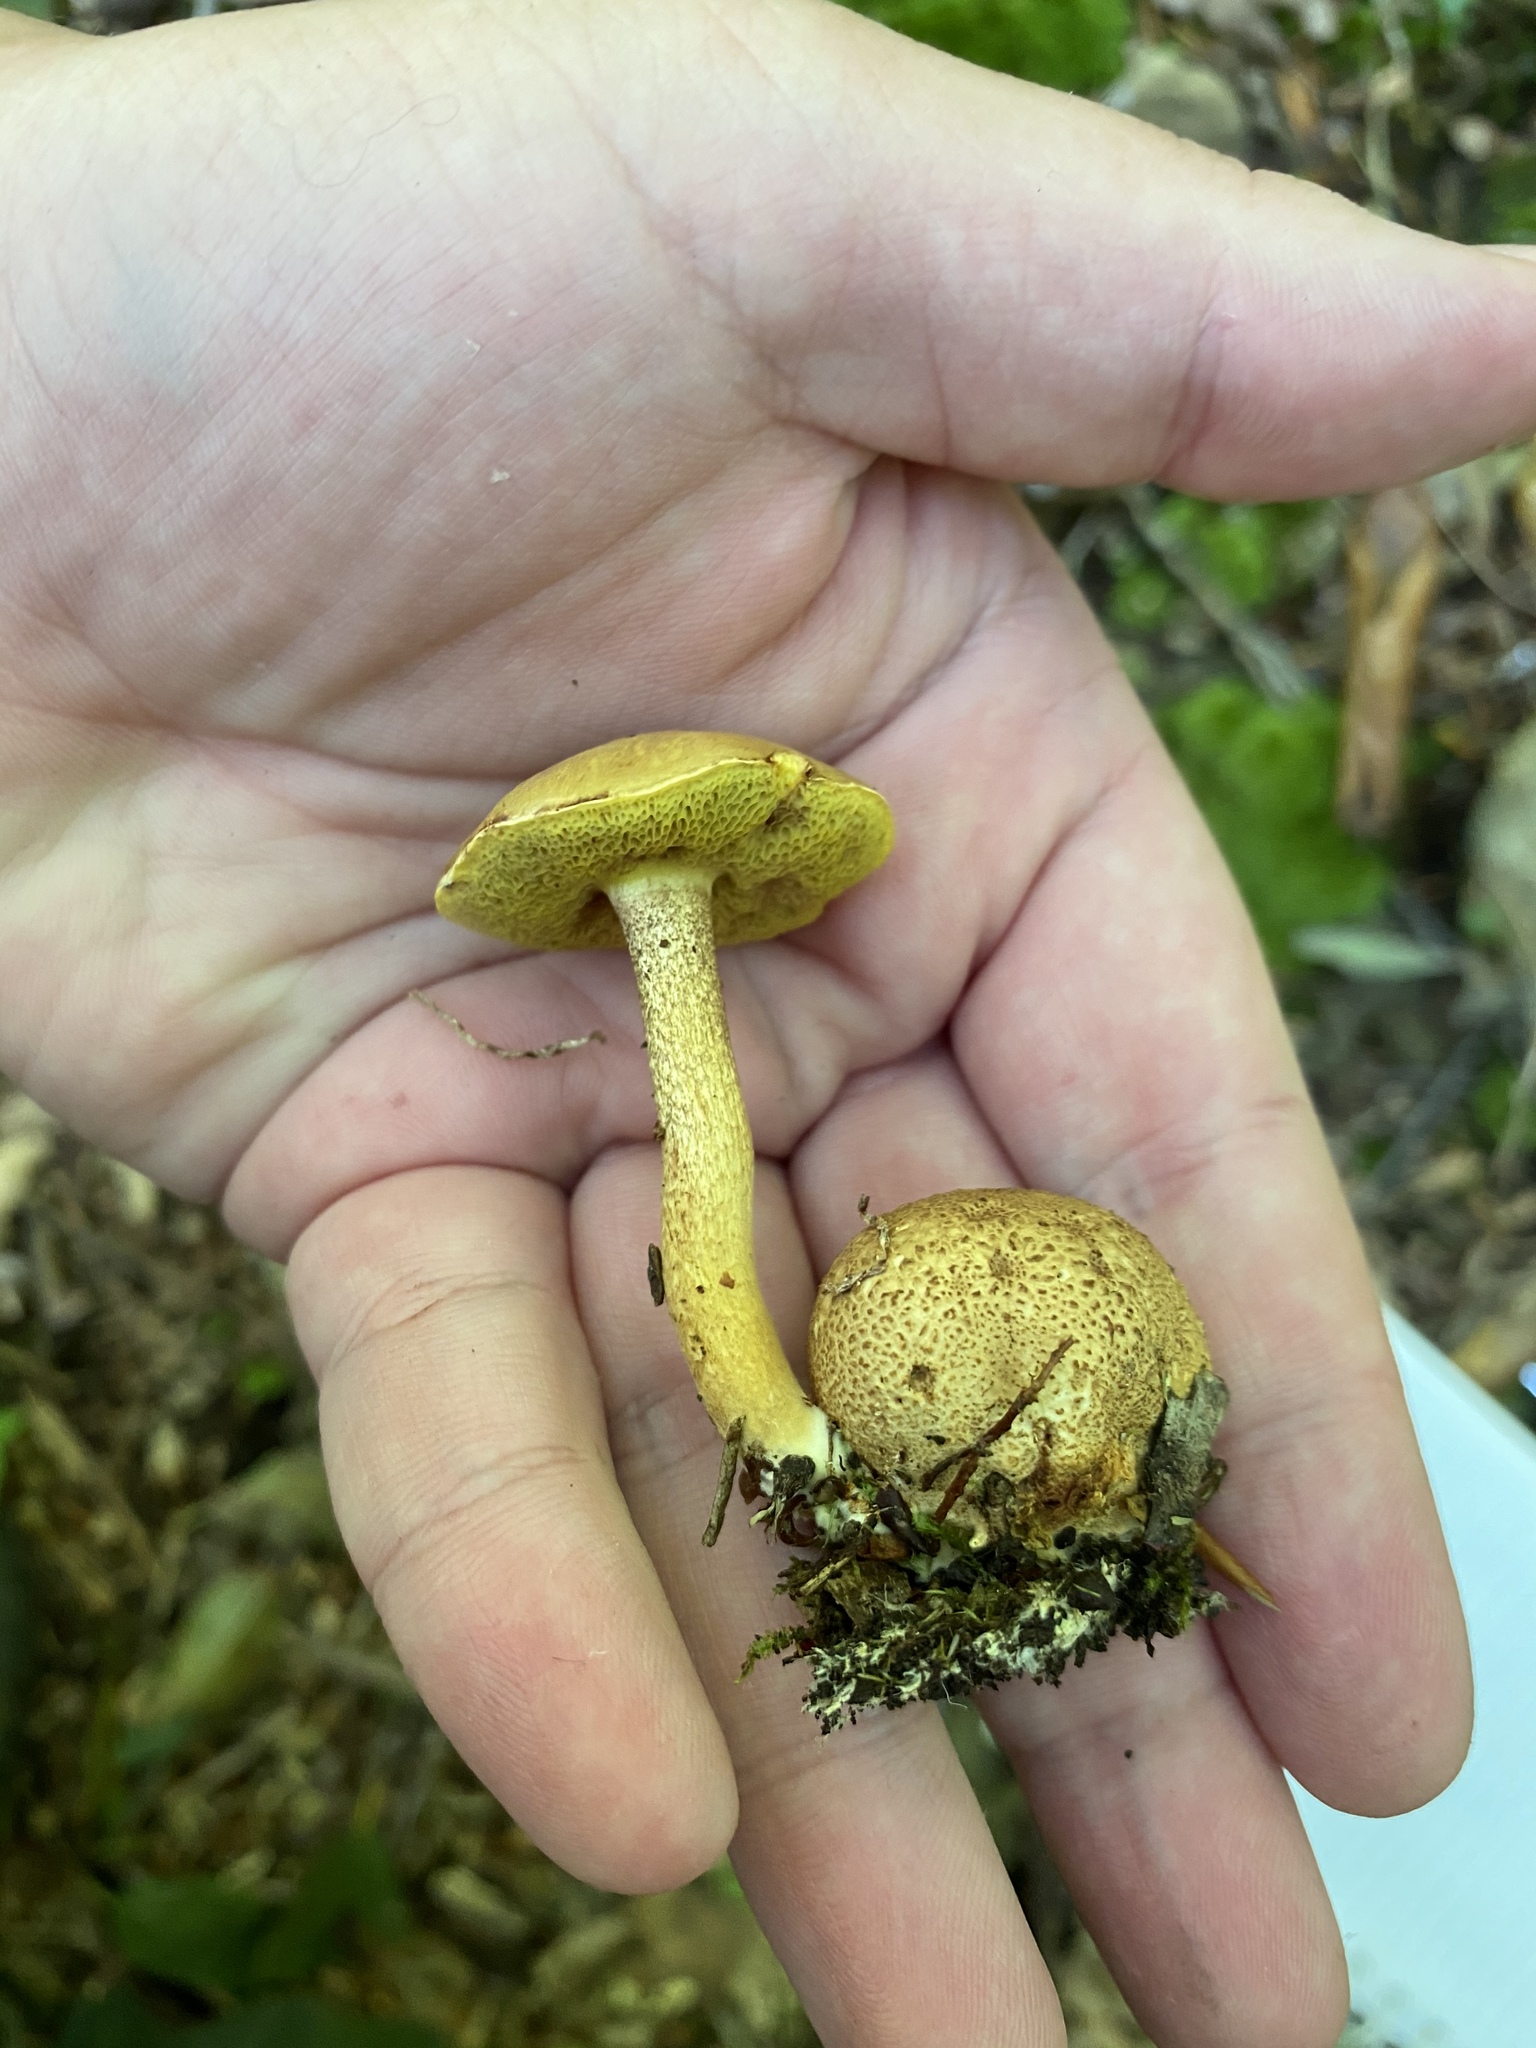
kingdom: Fungi
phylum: Basidiomycota
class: Agaricomycetes
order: Boletales
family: Boletaceae
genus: Pseudoboletus
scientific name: Pseudoboletus parasiticus
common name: Parasitic bolete
